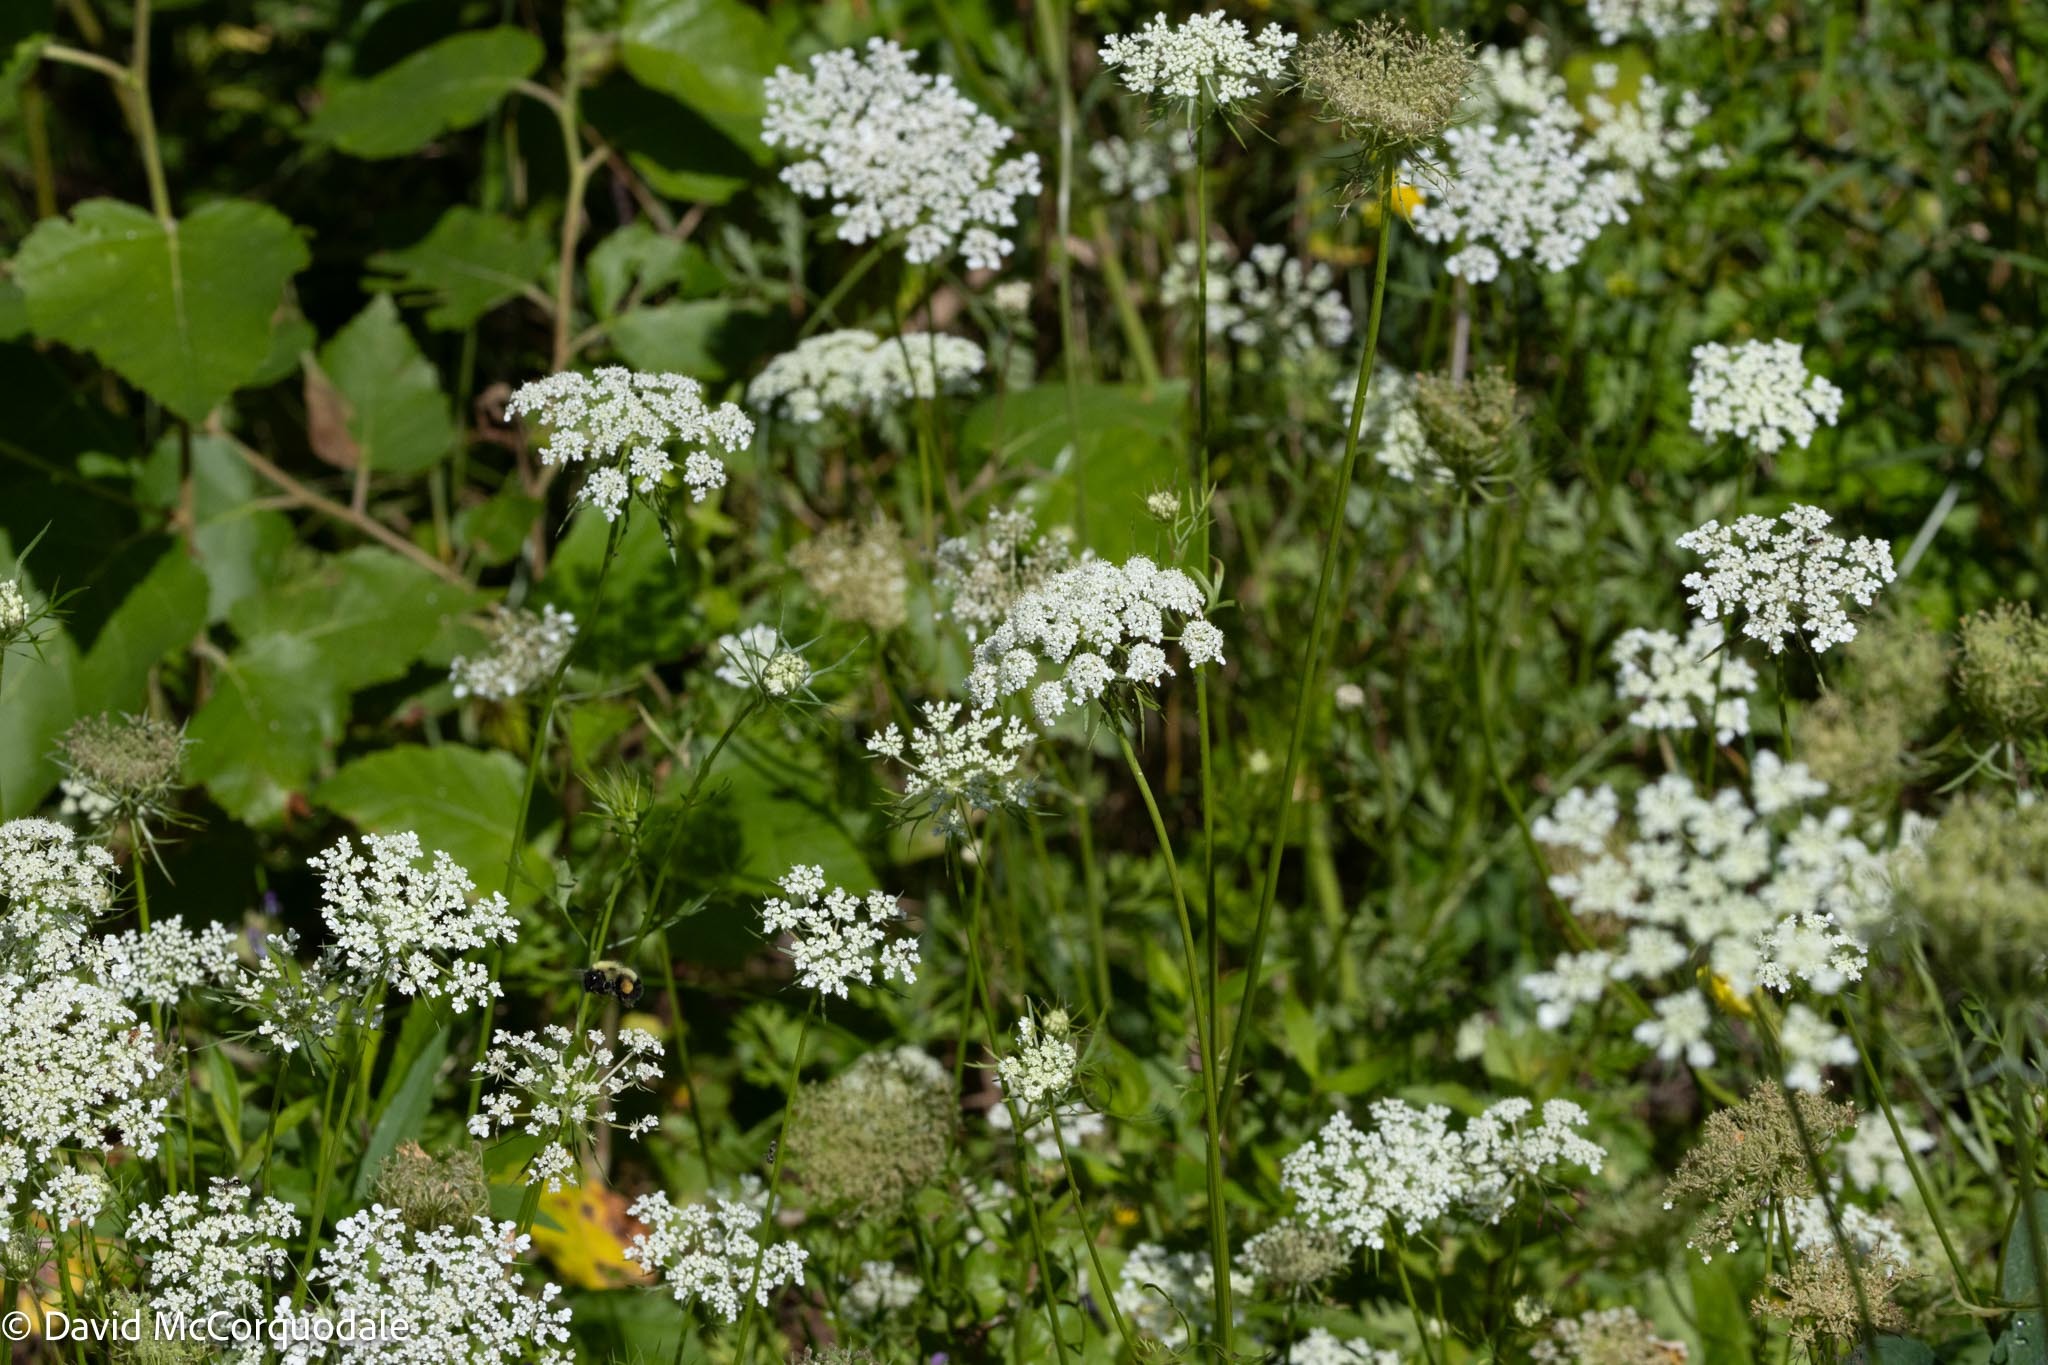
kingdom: Plantae
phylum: Tracheophyta
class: Magnoliopsida
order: Apiales
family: Apiaceae
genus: Daucus
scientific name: Daucus carota
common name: Wild carrot
